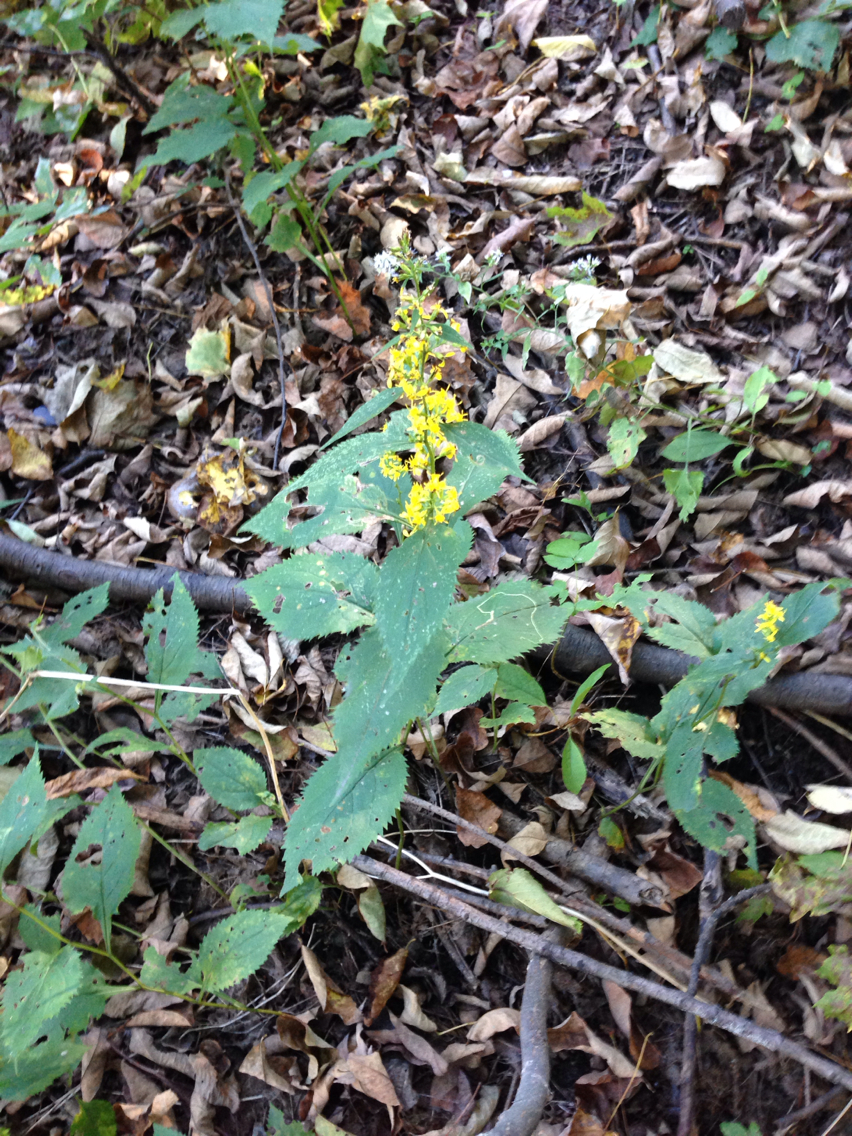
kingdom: Plantae
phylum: Tracheophyta
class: Magnoliopsida
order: Asterales
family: Asteraceae
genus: Solidago
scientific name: Solidago flexicaulis
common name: Zig-zag goldenrod
